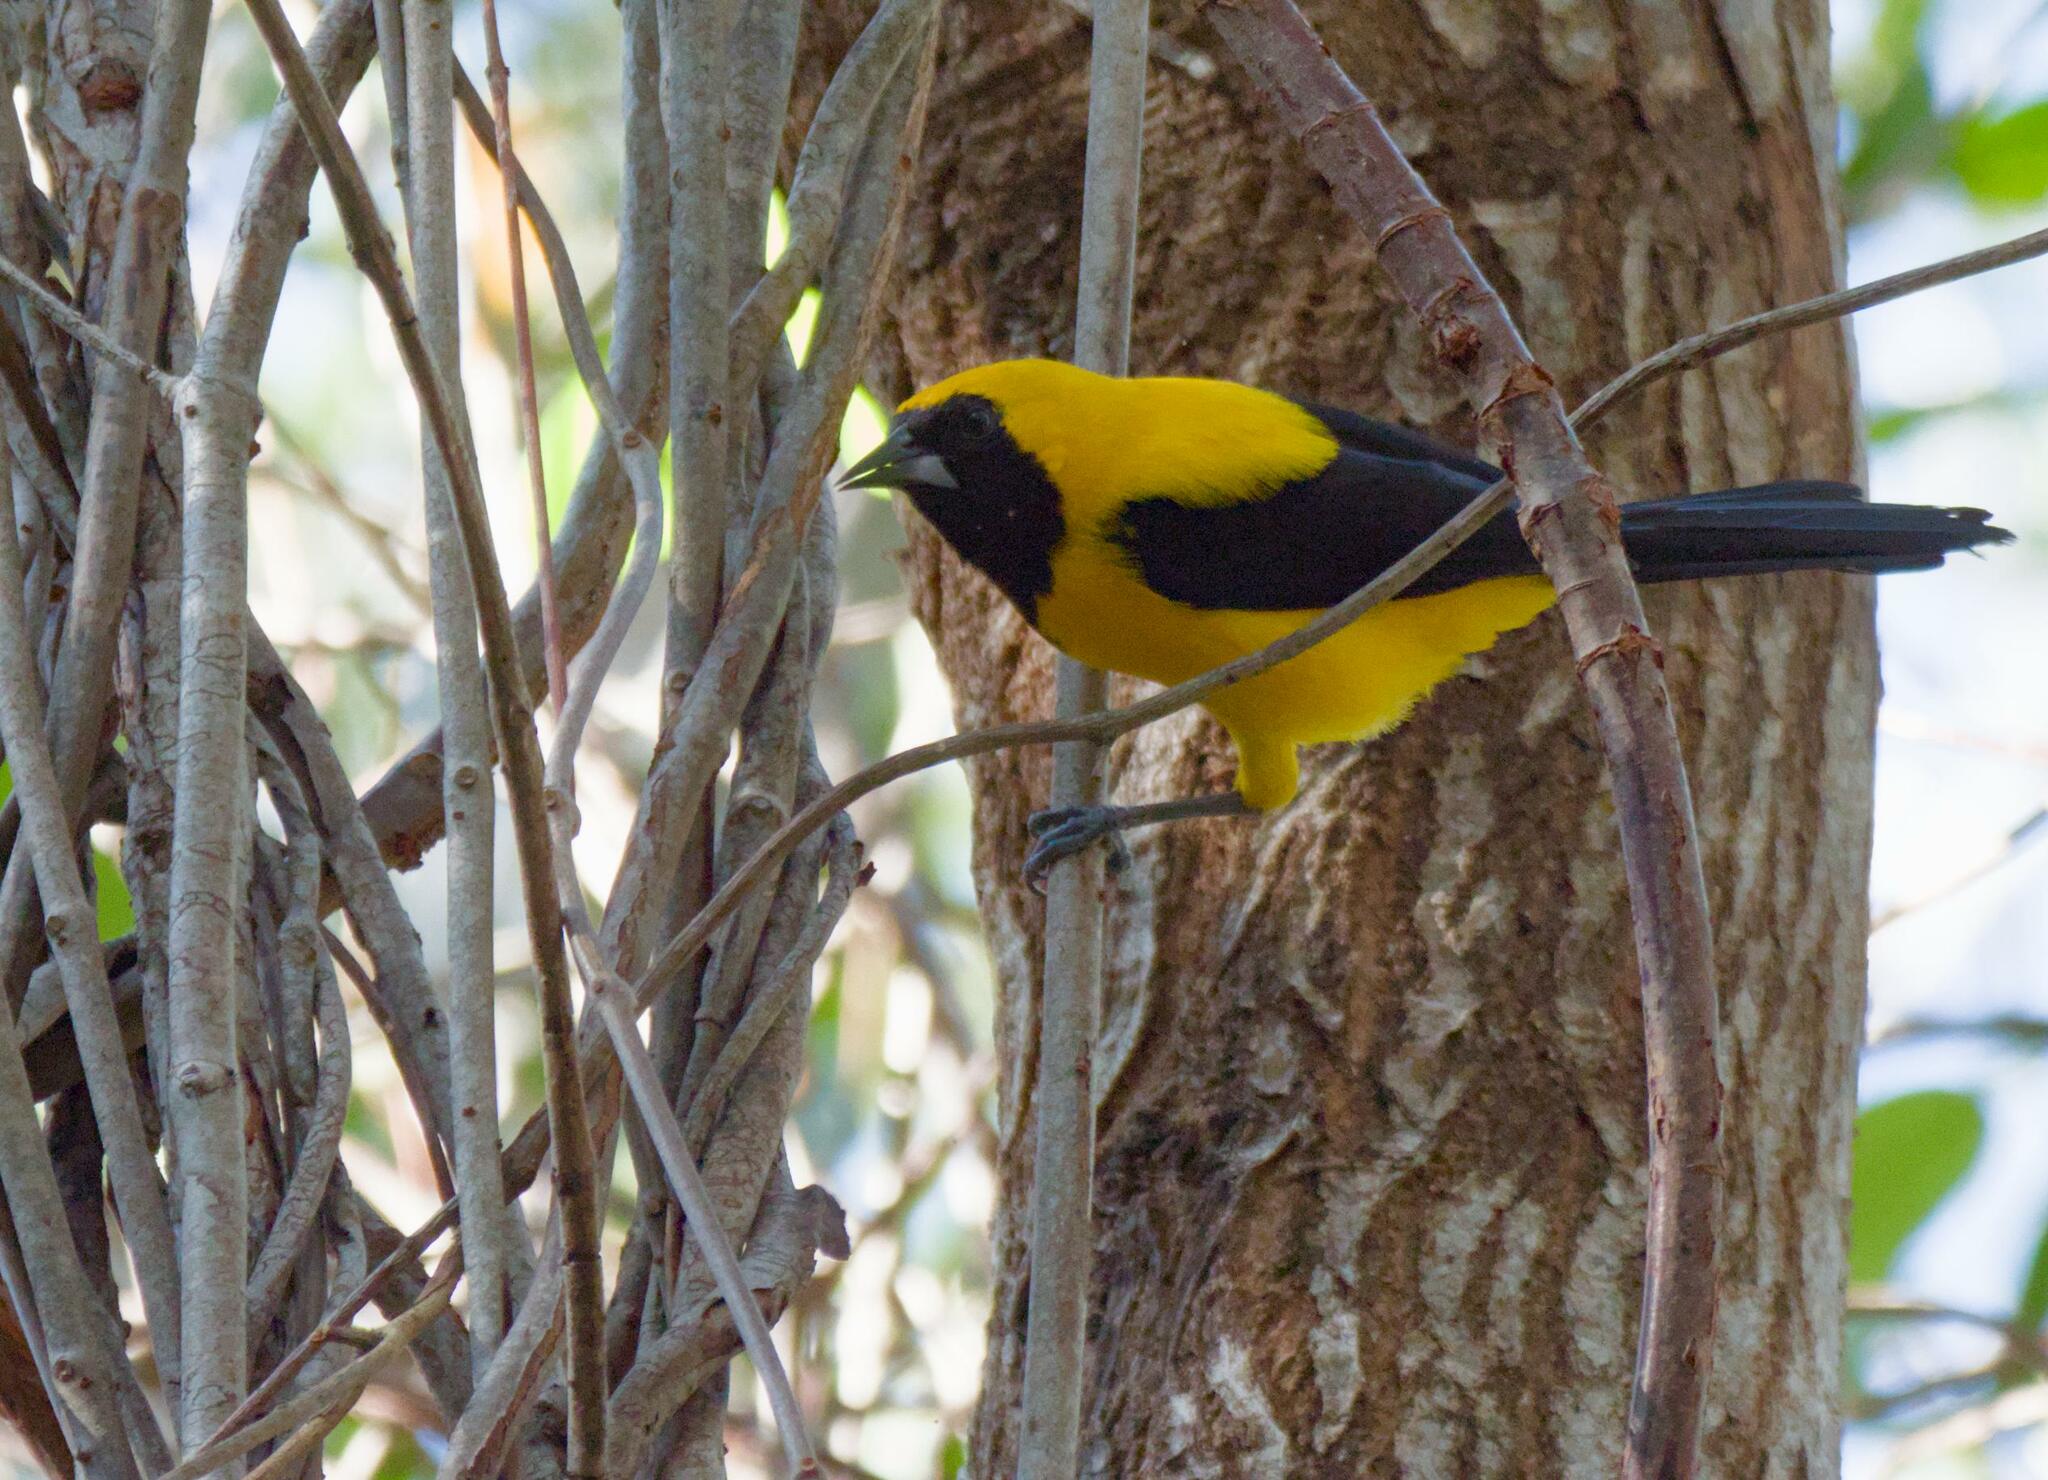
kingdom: Animalia
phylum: Chordata
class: Aves
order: Passeriformes
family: Icteridae
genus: Icterus
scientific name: Icterus chrysater
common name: Yellow-backed oriole
